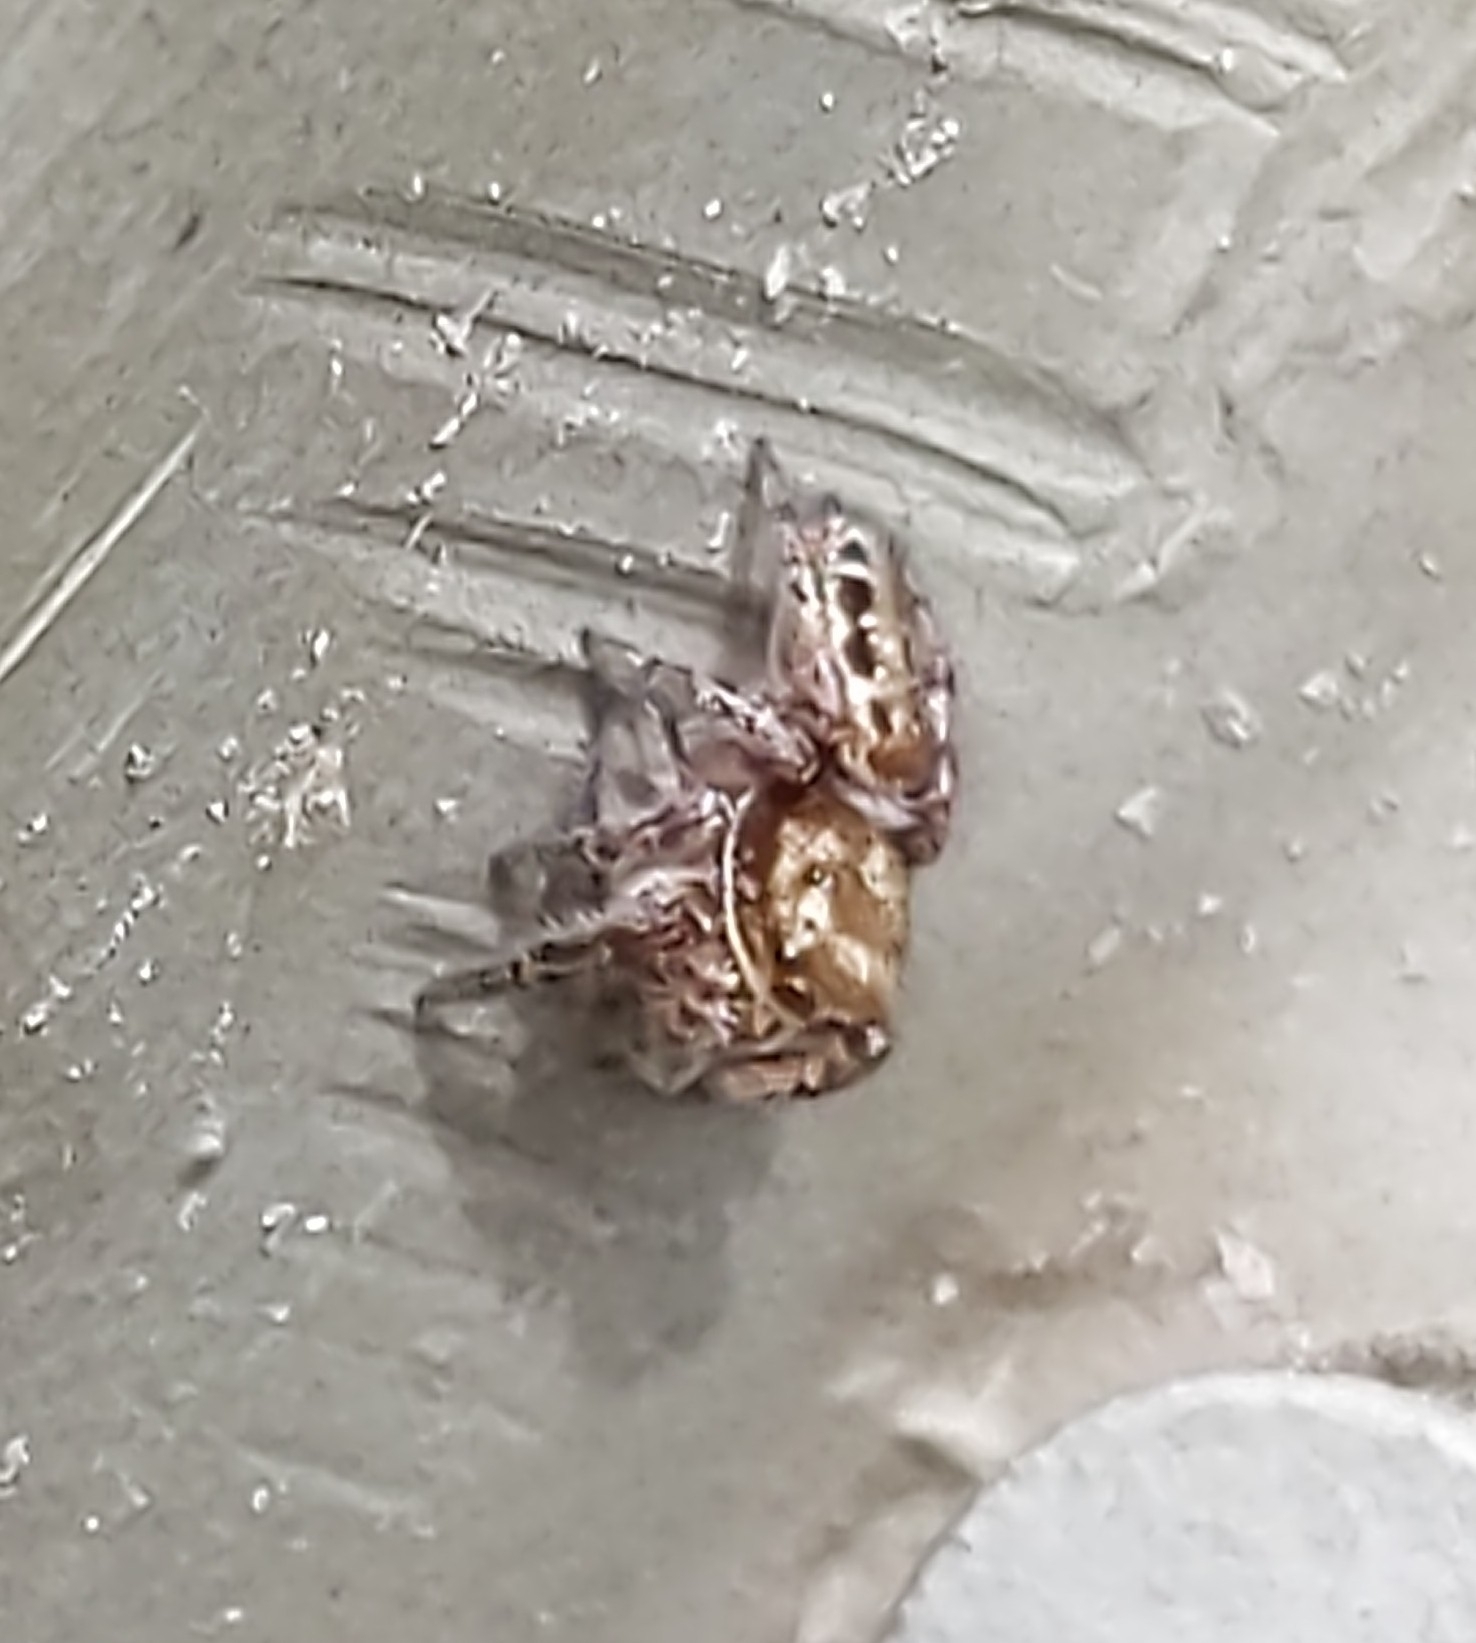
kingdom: Animalia
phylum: Arthropoda
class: Arachnida
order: Araneae
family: Salticidae
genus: Eris
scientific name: Eris flava
